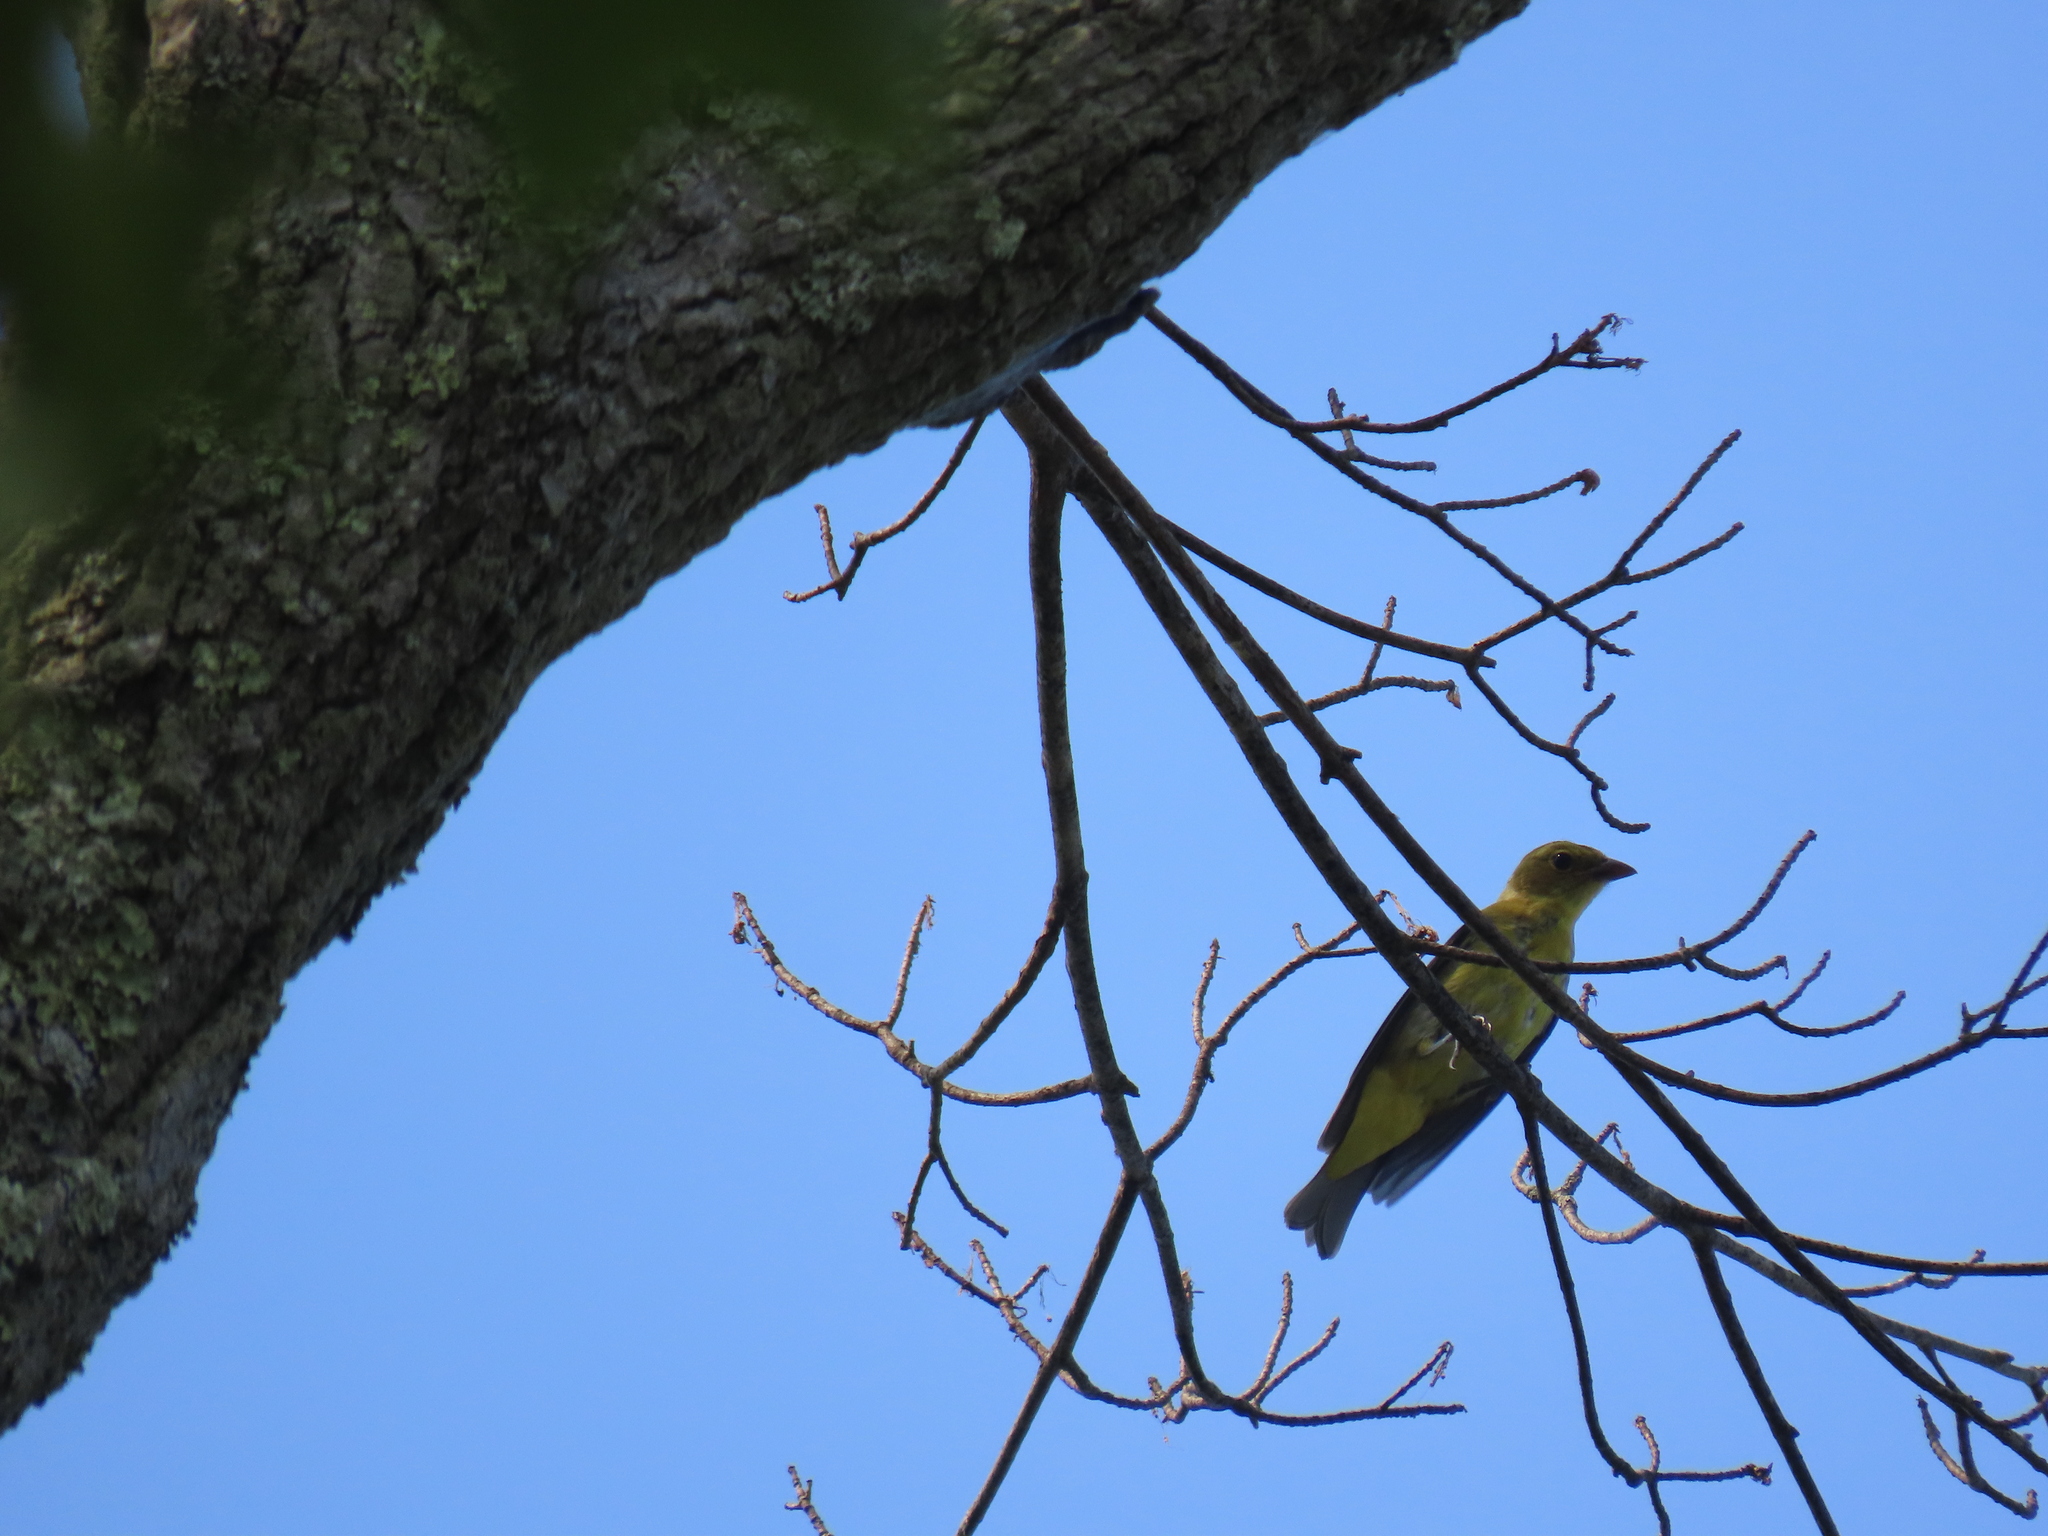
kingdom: Animalia
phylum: Chordata
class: Aves
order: Passeriformes
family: Cardinalidae
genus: Piranga
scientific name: Piranga olivacea
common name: Scarlet tanager
